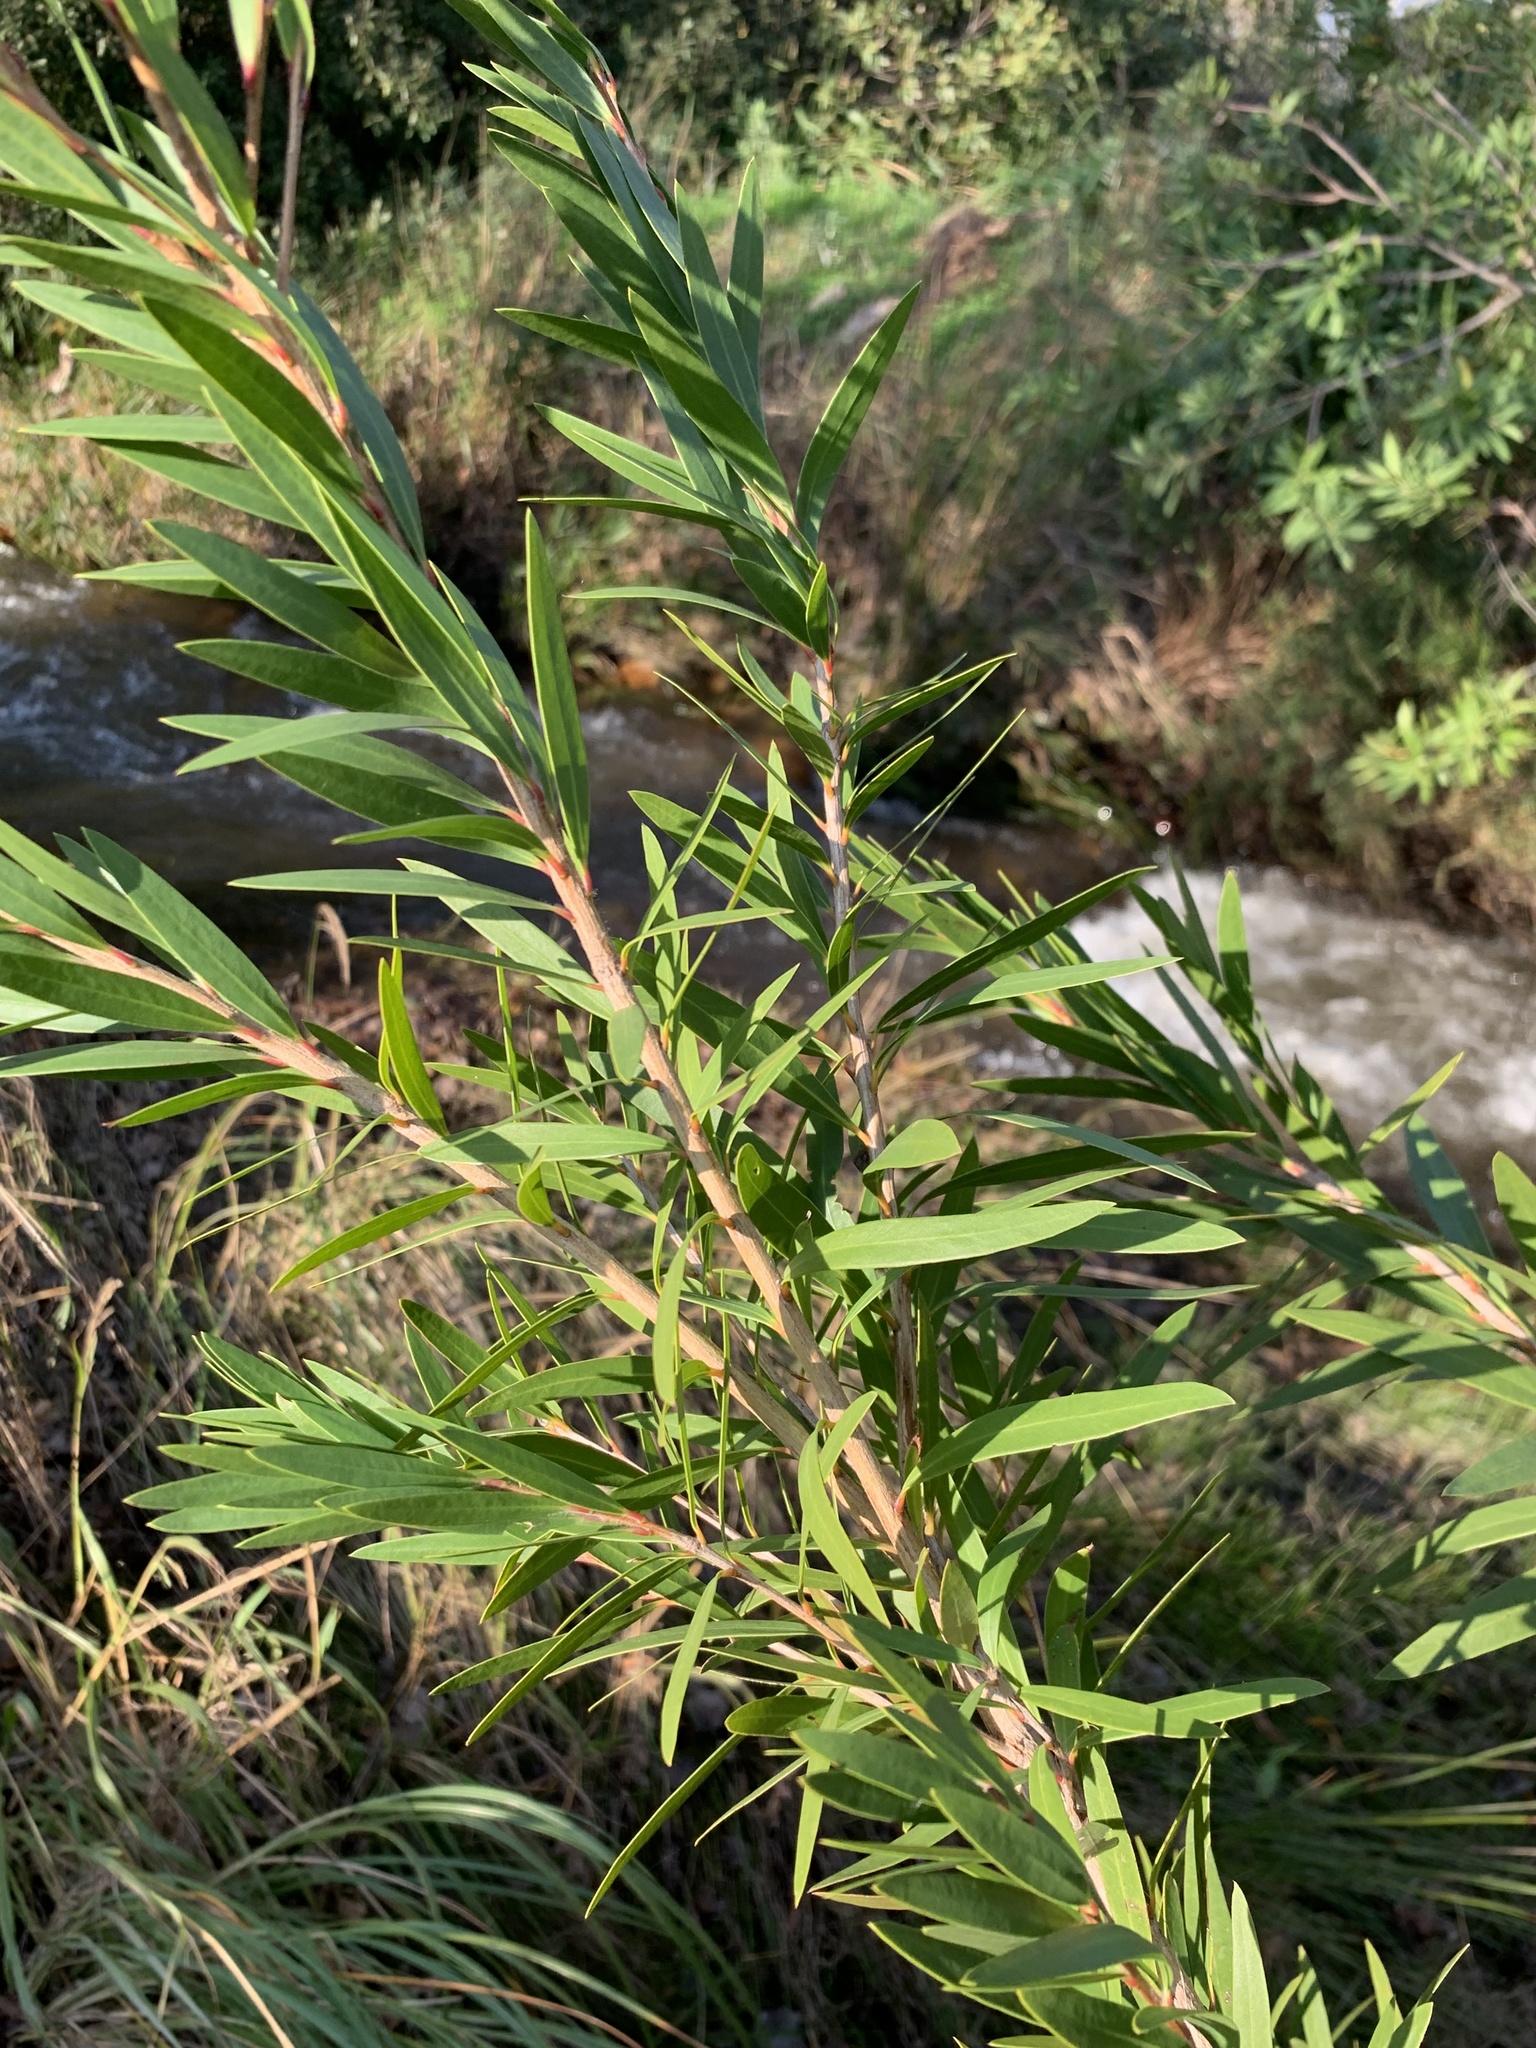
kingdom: Plantae
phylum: Tracheophyta
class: Magnoliopsida
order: Myrtales
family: Myrtaceae
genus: Callistemon
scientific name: Callistemon viminalis
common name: Drooping bottlebrush
